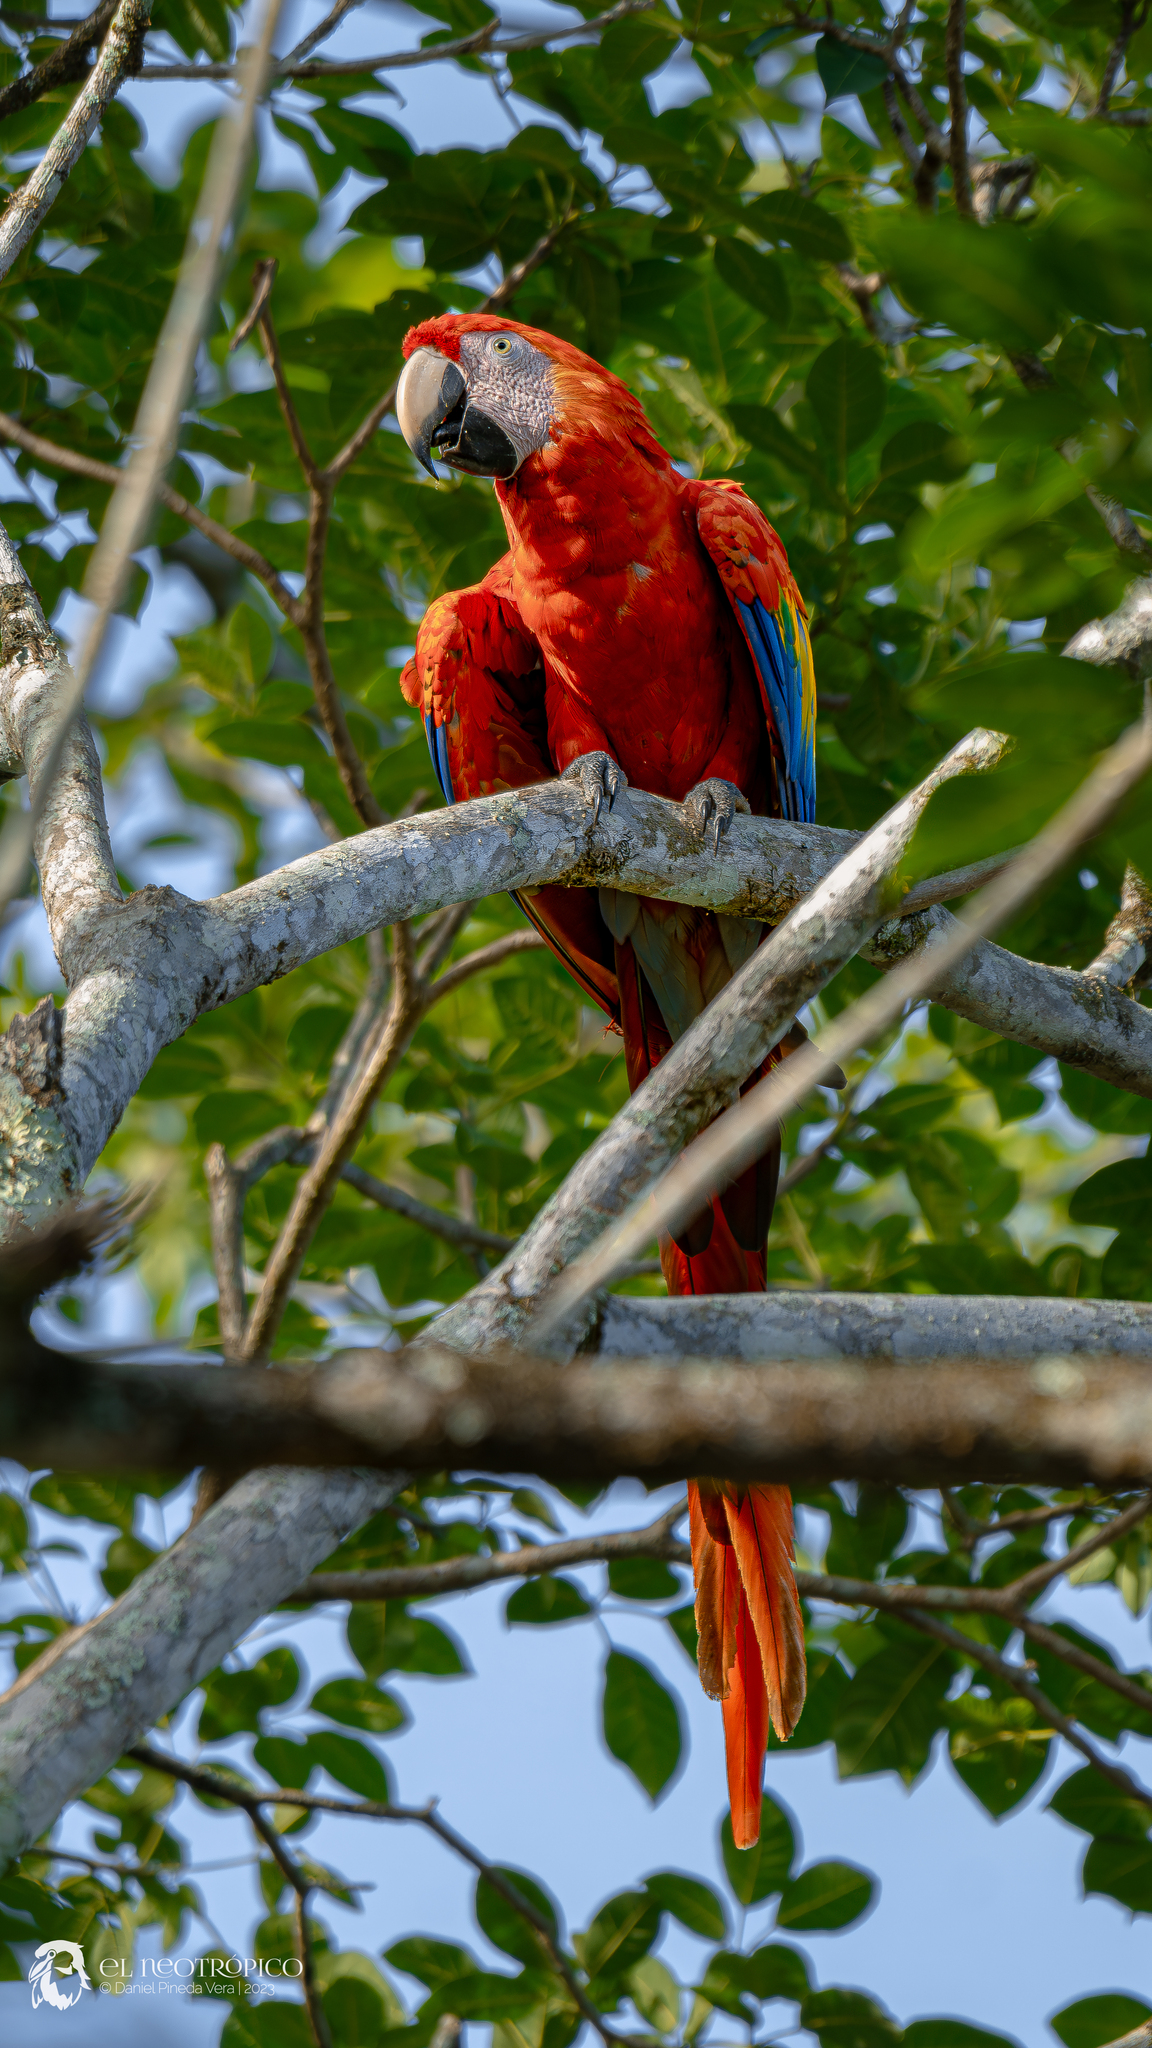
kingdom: Animalia
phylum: Chordata
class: Aves
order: Psittaciformes
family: Psittacidae
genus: Ara
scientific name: Ara macao
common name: Scarlet macaw
